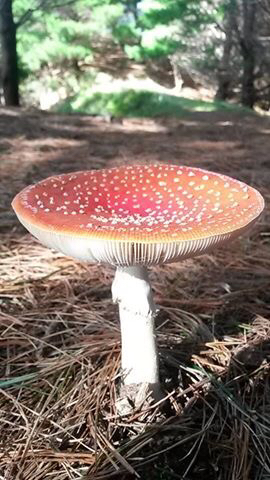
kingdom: Fungi
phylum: Basidiomycota
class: Agaricomycetes
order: Agaricales
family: Amanitaceae
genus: Amanita
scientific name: Amanita muscaria
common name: Fly agaric
